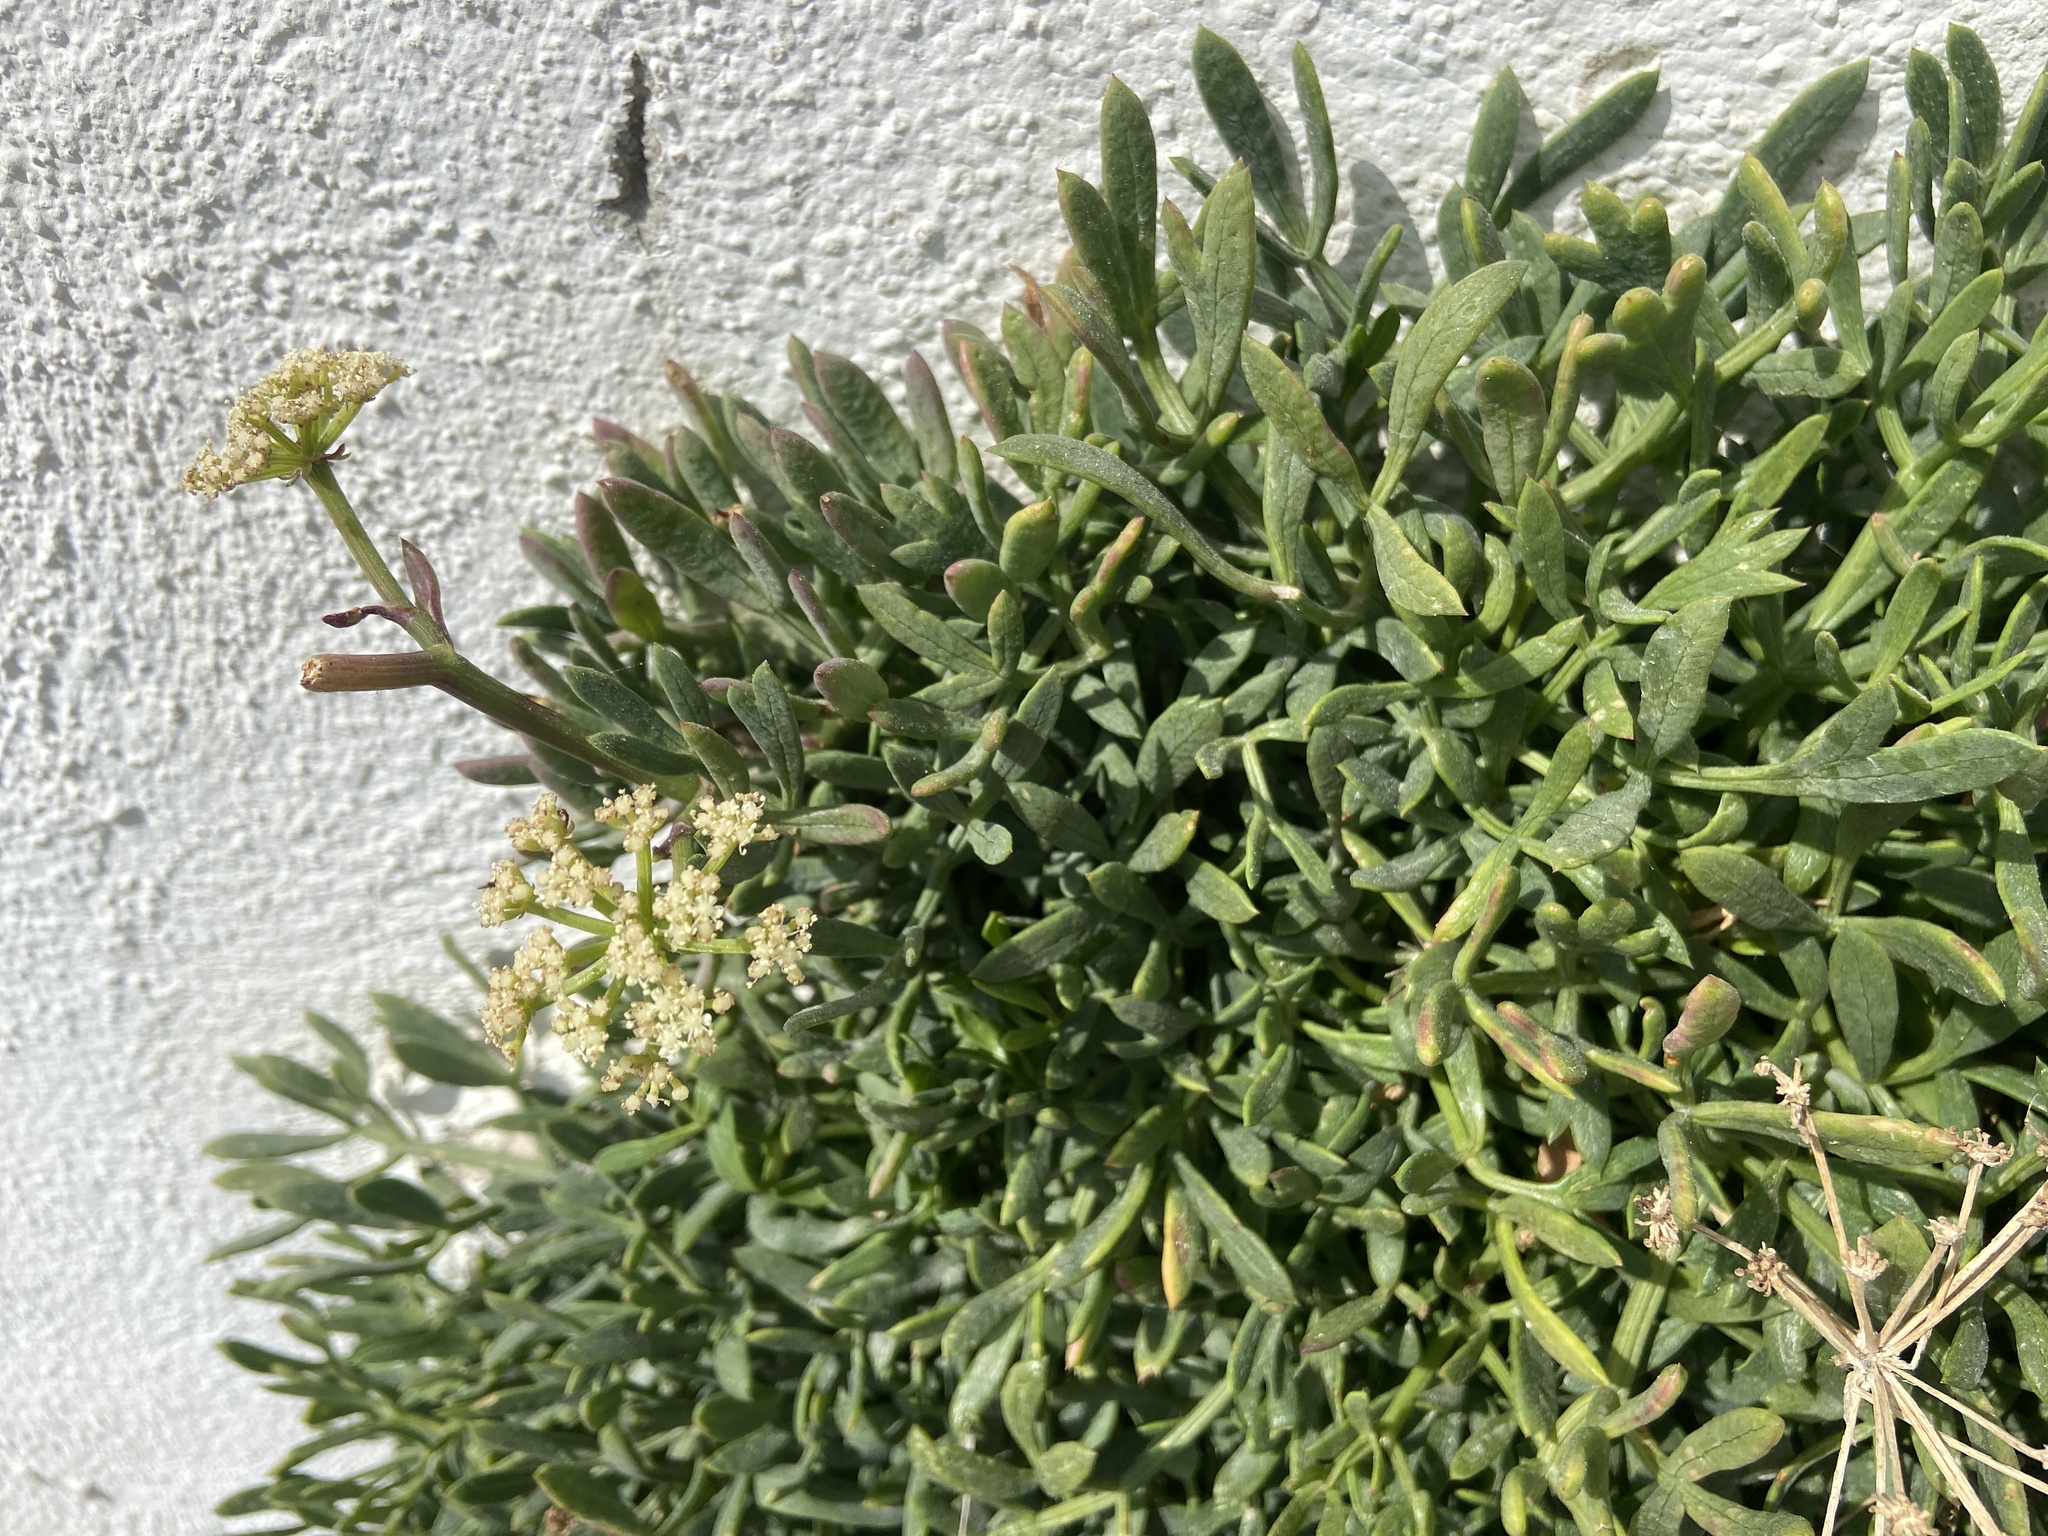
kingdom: Plantae
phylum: Tracheophyta
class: Magnoliopsida
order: Apiales
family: Apiaceae
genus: Crithmum
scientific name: Crithmum maritimum
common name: Rock samphire
